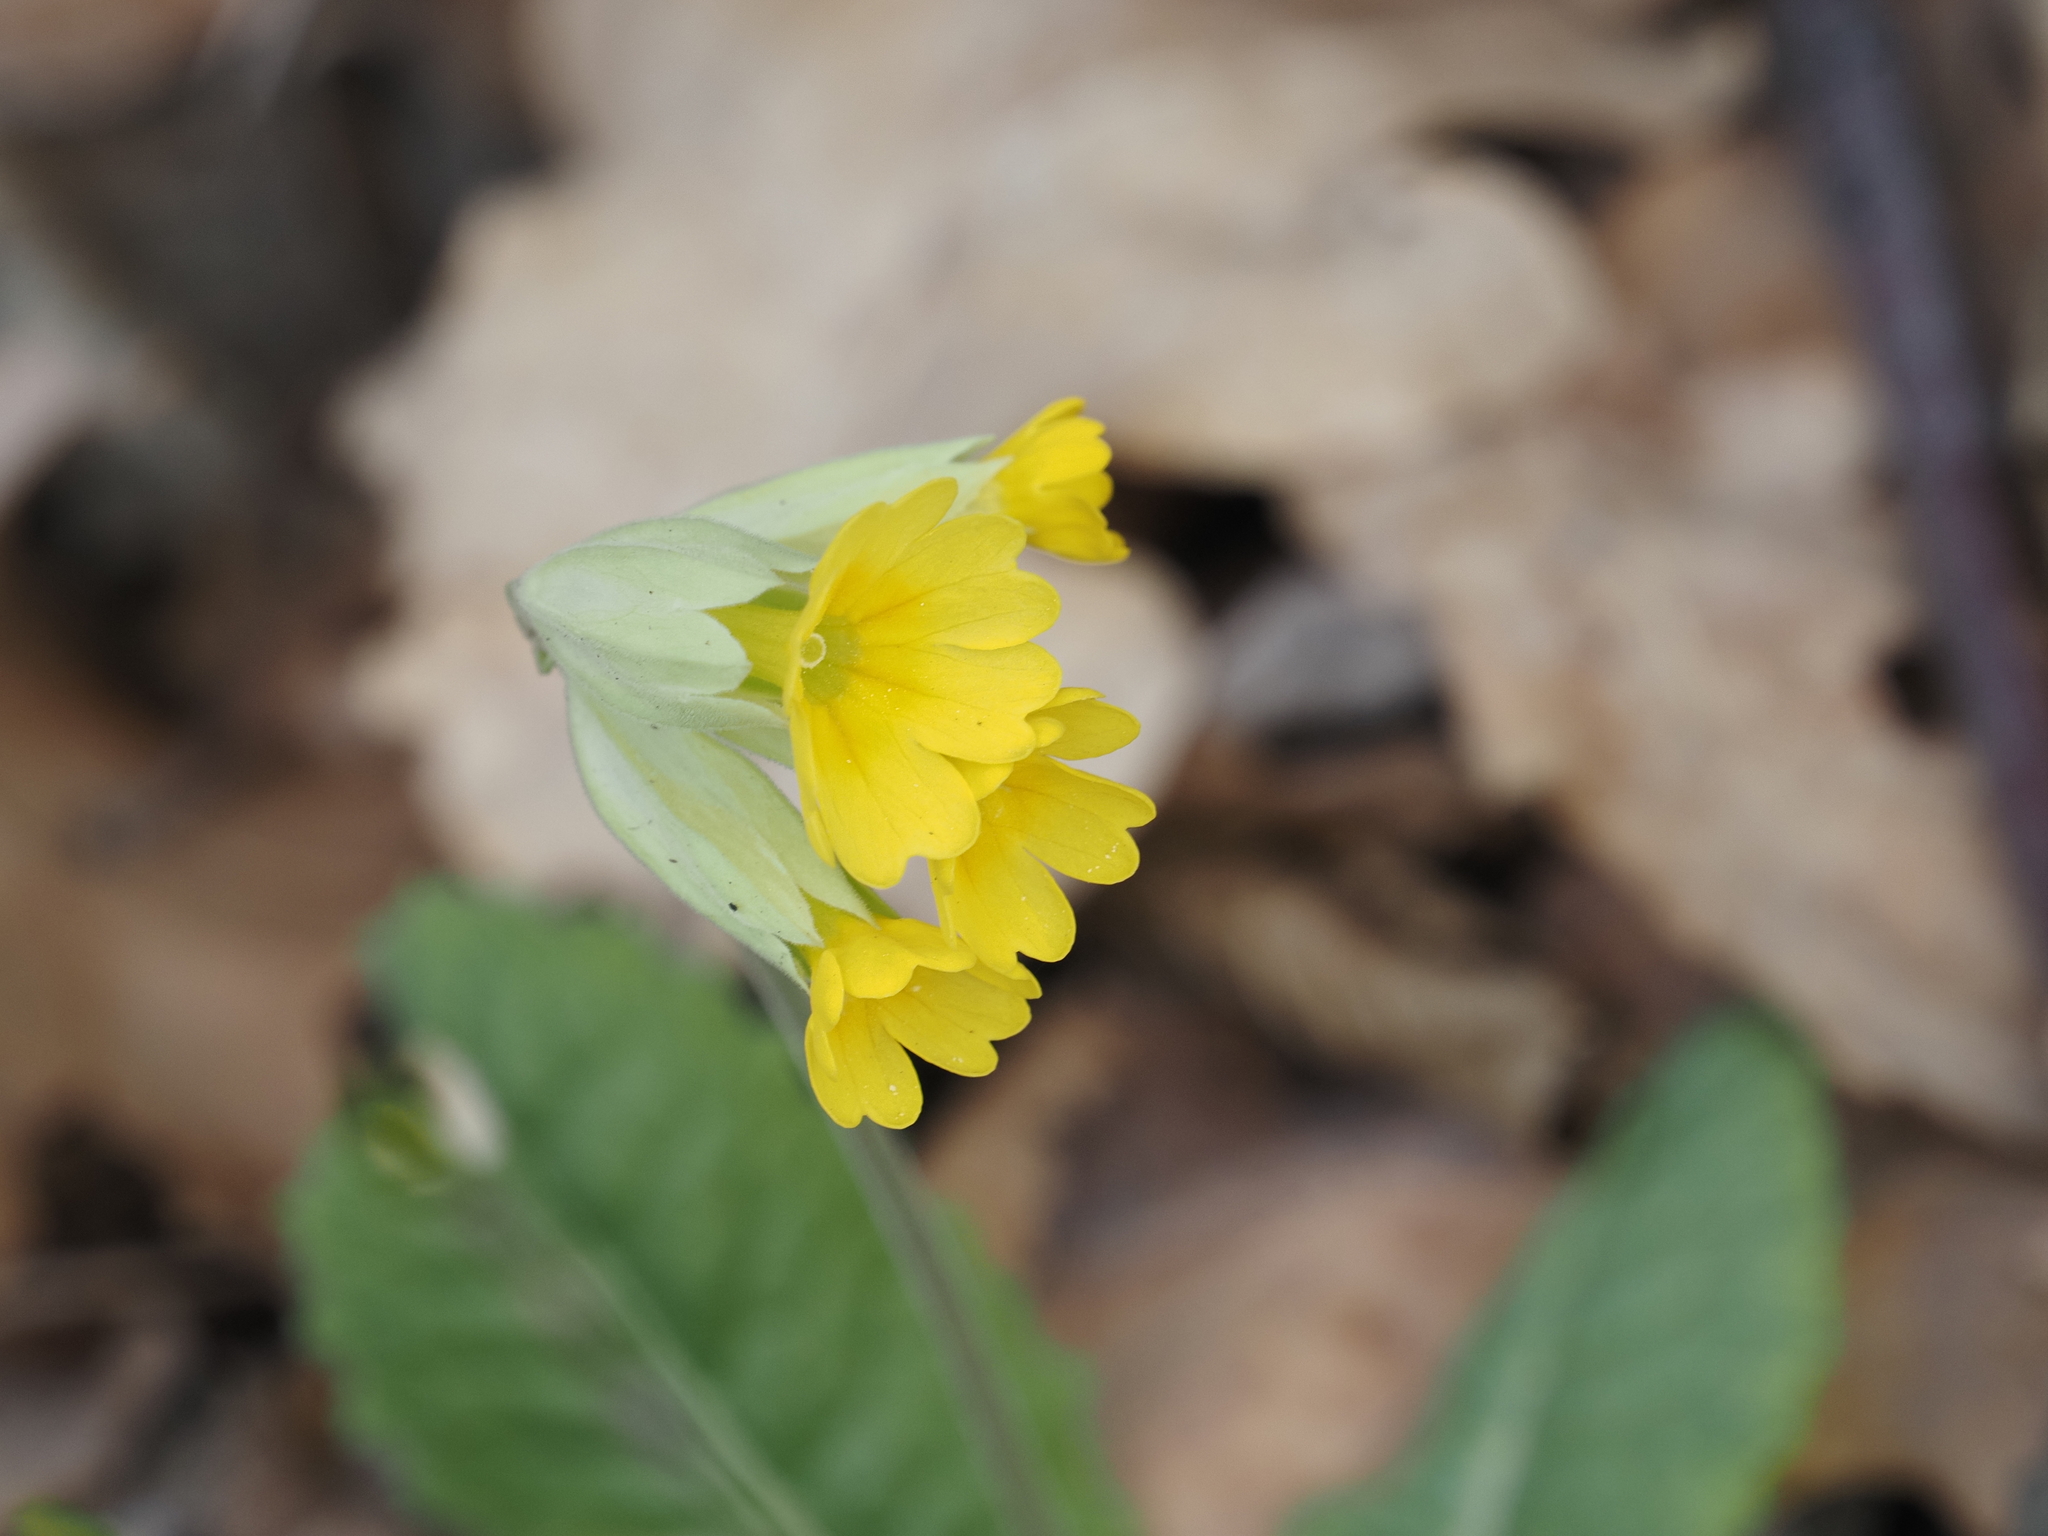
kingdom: Plantae
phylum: Tracheophyta
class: Magnoliopsida
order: Ericales
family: Primulaceae
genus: Primula
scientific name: Primula veris
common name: Cowslip
